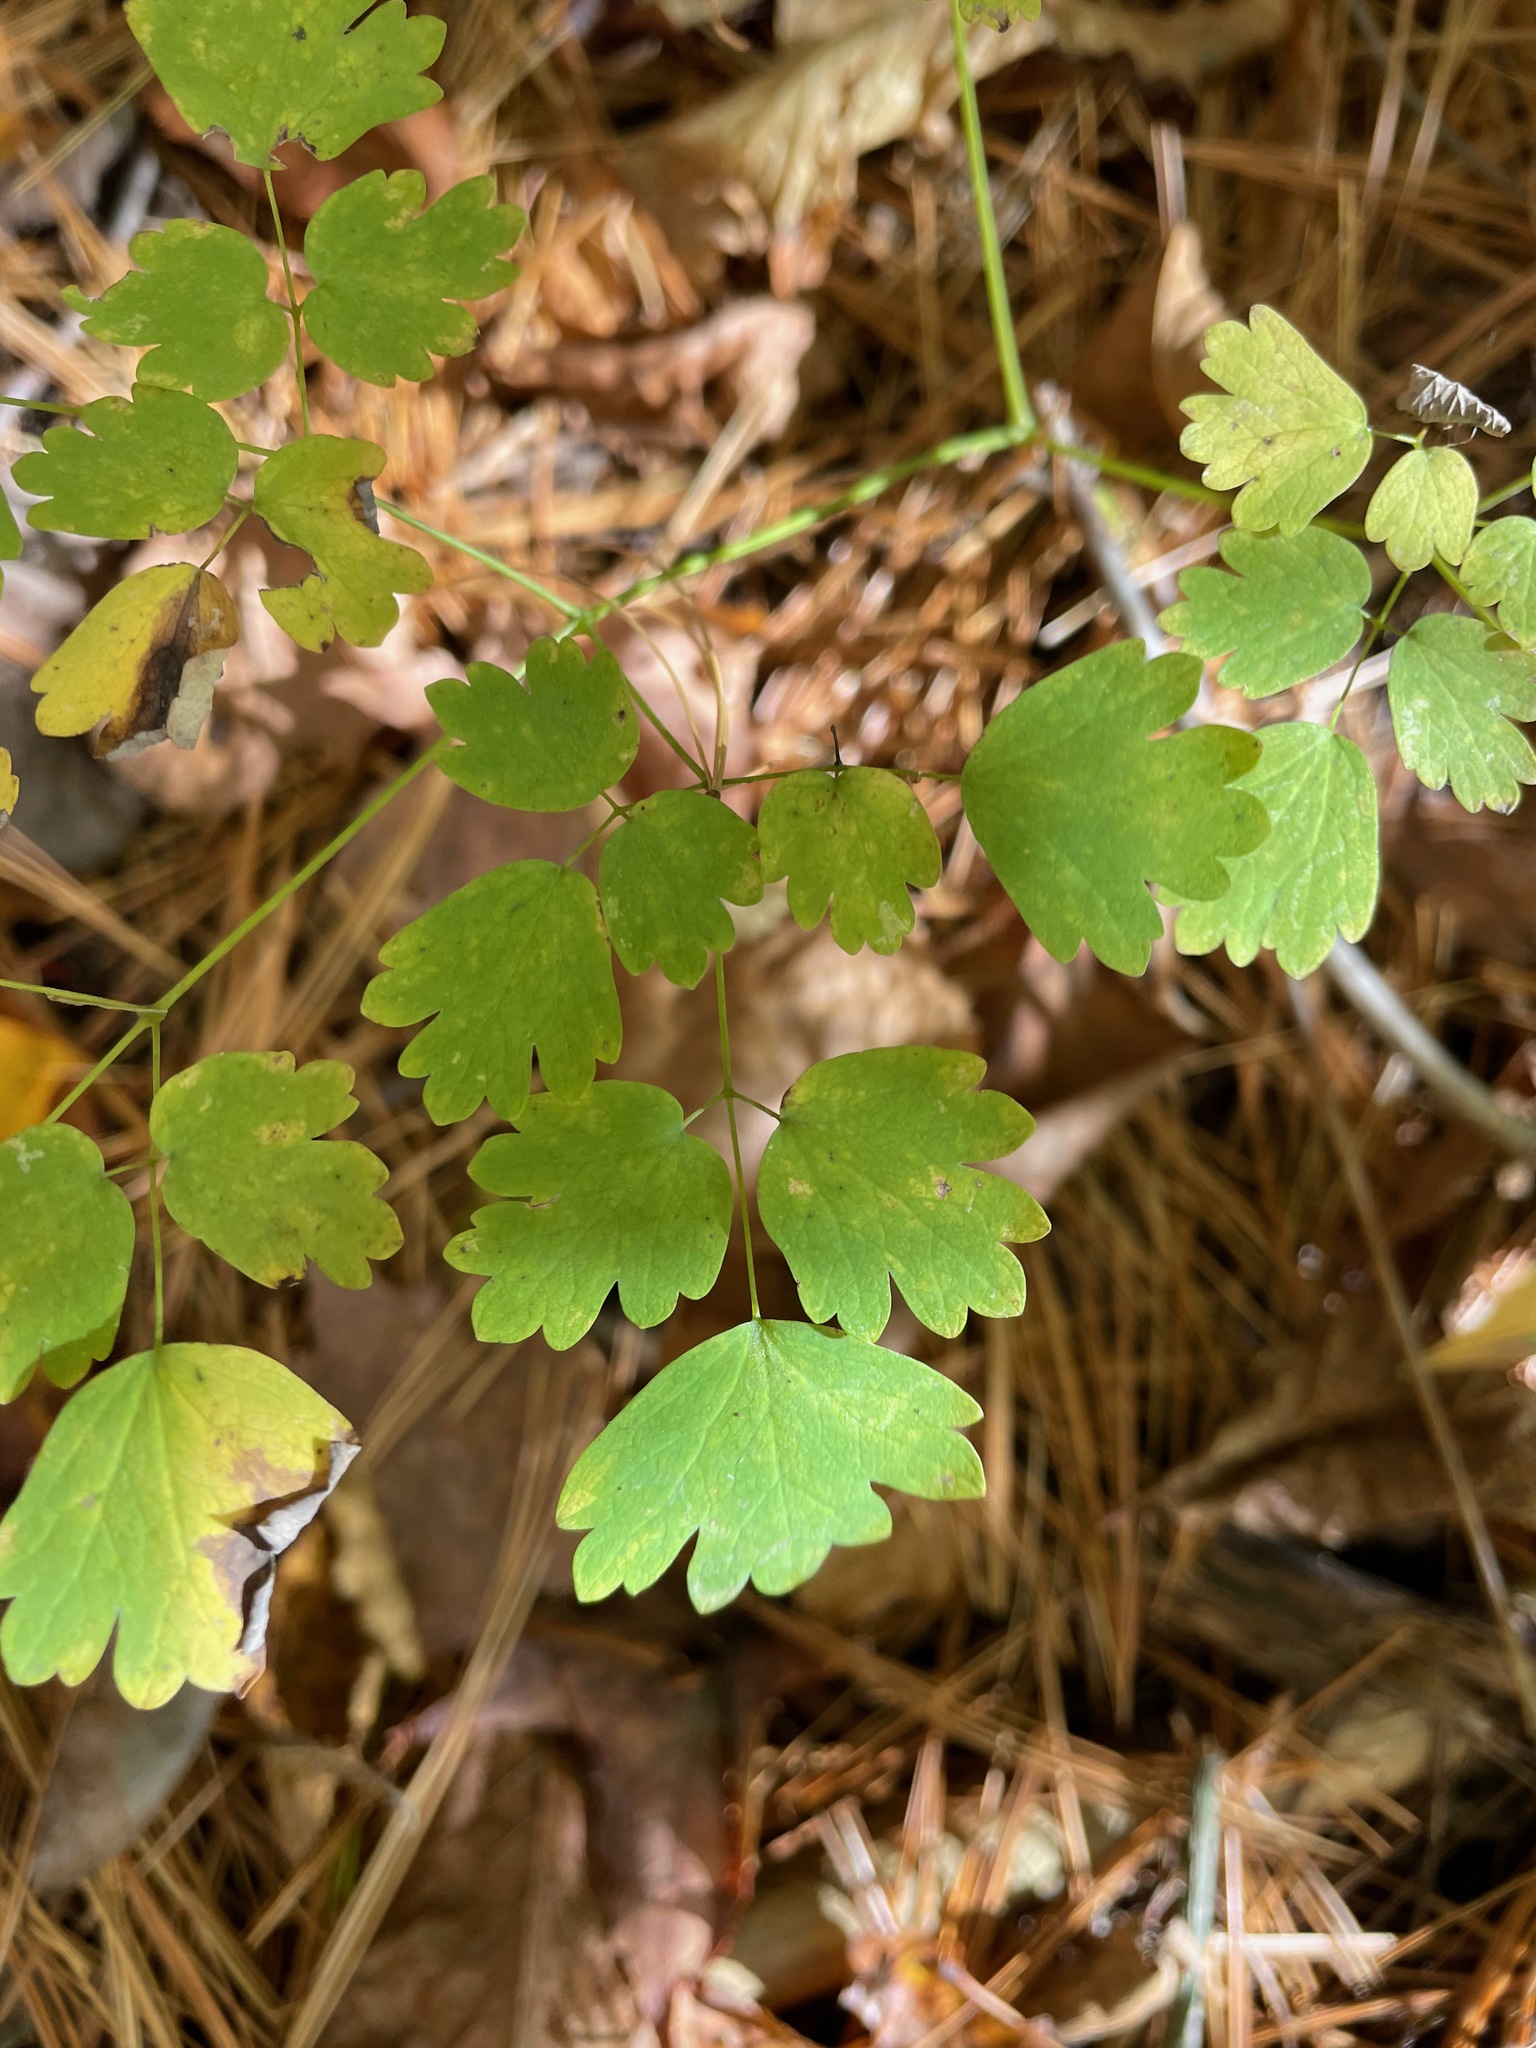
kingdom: Plantae
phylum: Tracheophyta
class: Magnoliopsida
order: Ranunculales
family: Ranunculaceae
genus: Thalictrum
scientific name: Thalictrum dioicum
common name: Early meadow-rue
